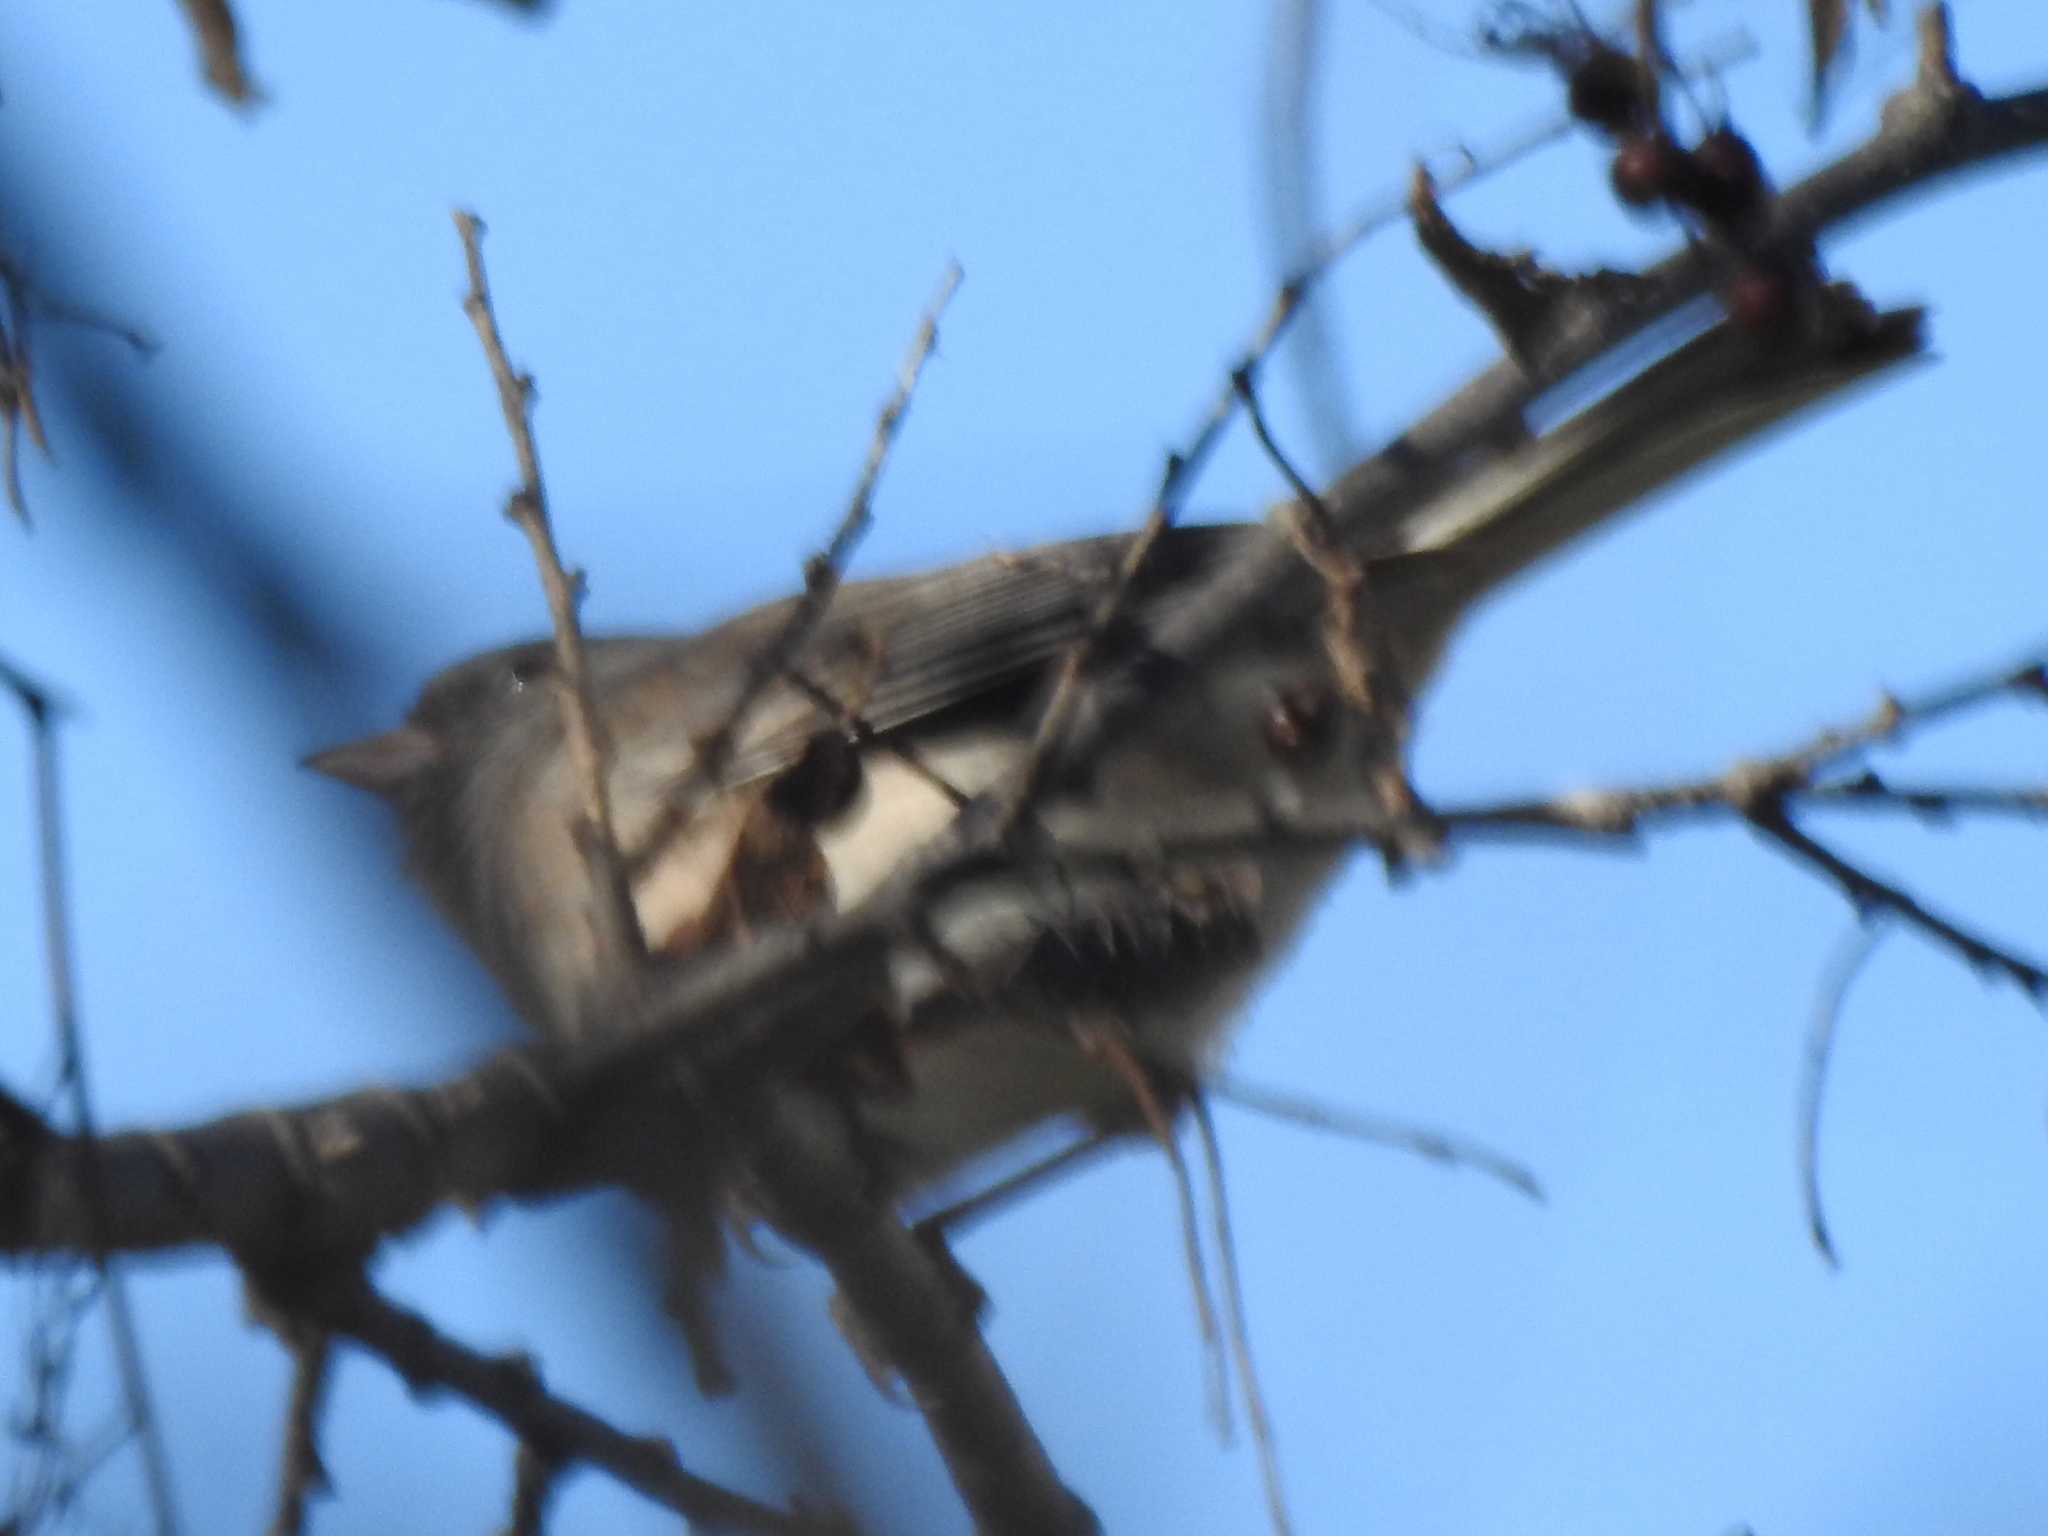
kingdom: Animalia
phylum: Chordata
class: Aves
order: Passeriformes
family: Passerellidae
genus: Junco
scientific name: Junco hyemalis
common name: Dark-eyed junco
